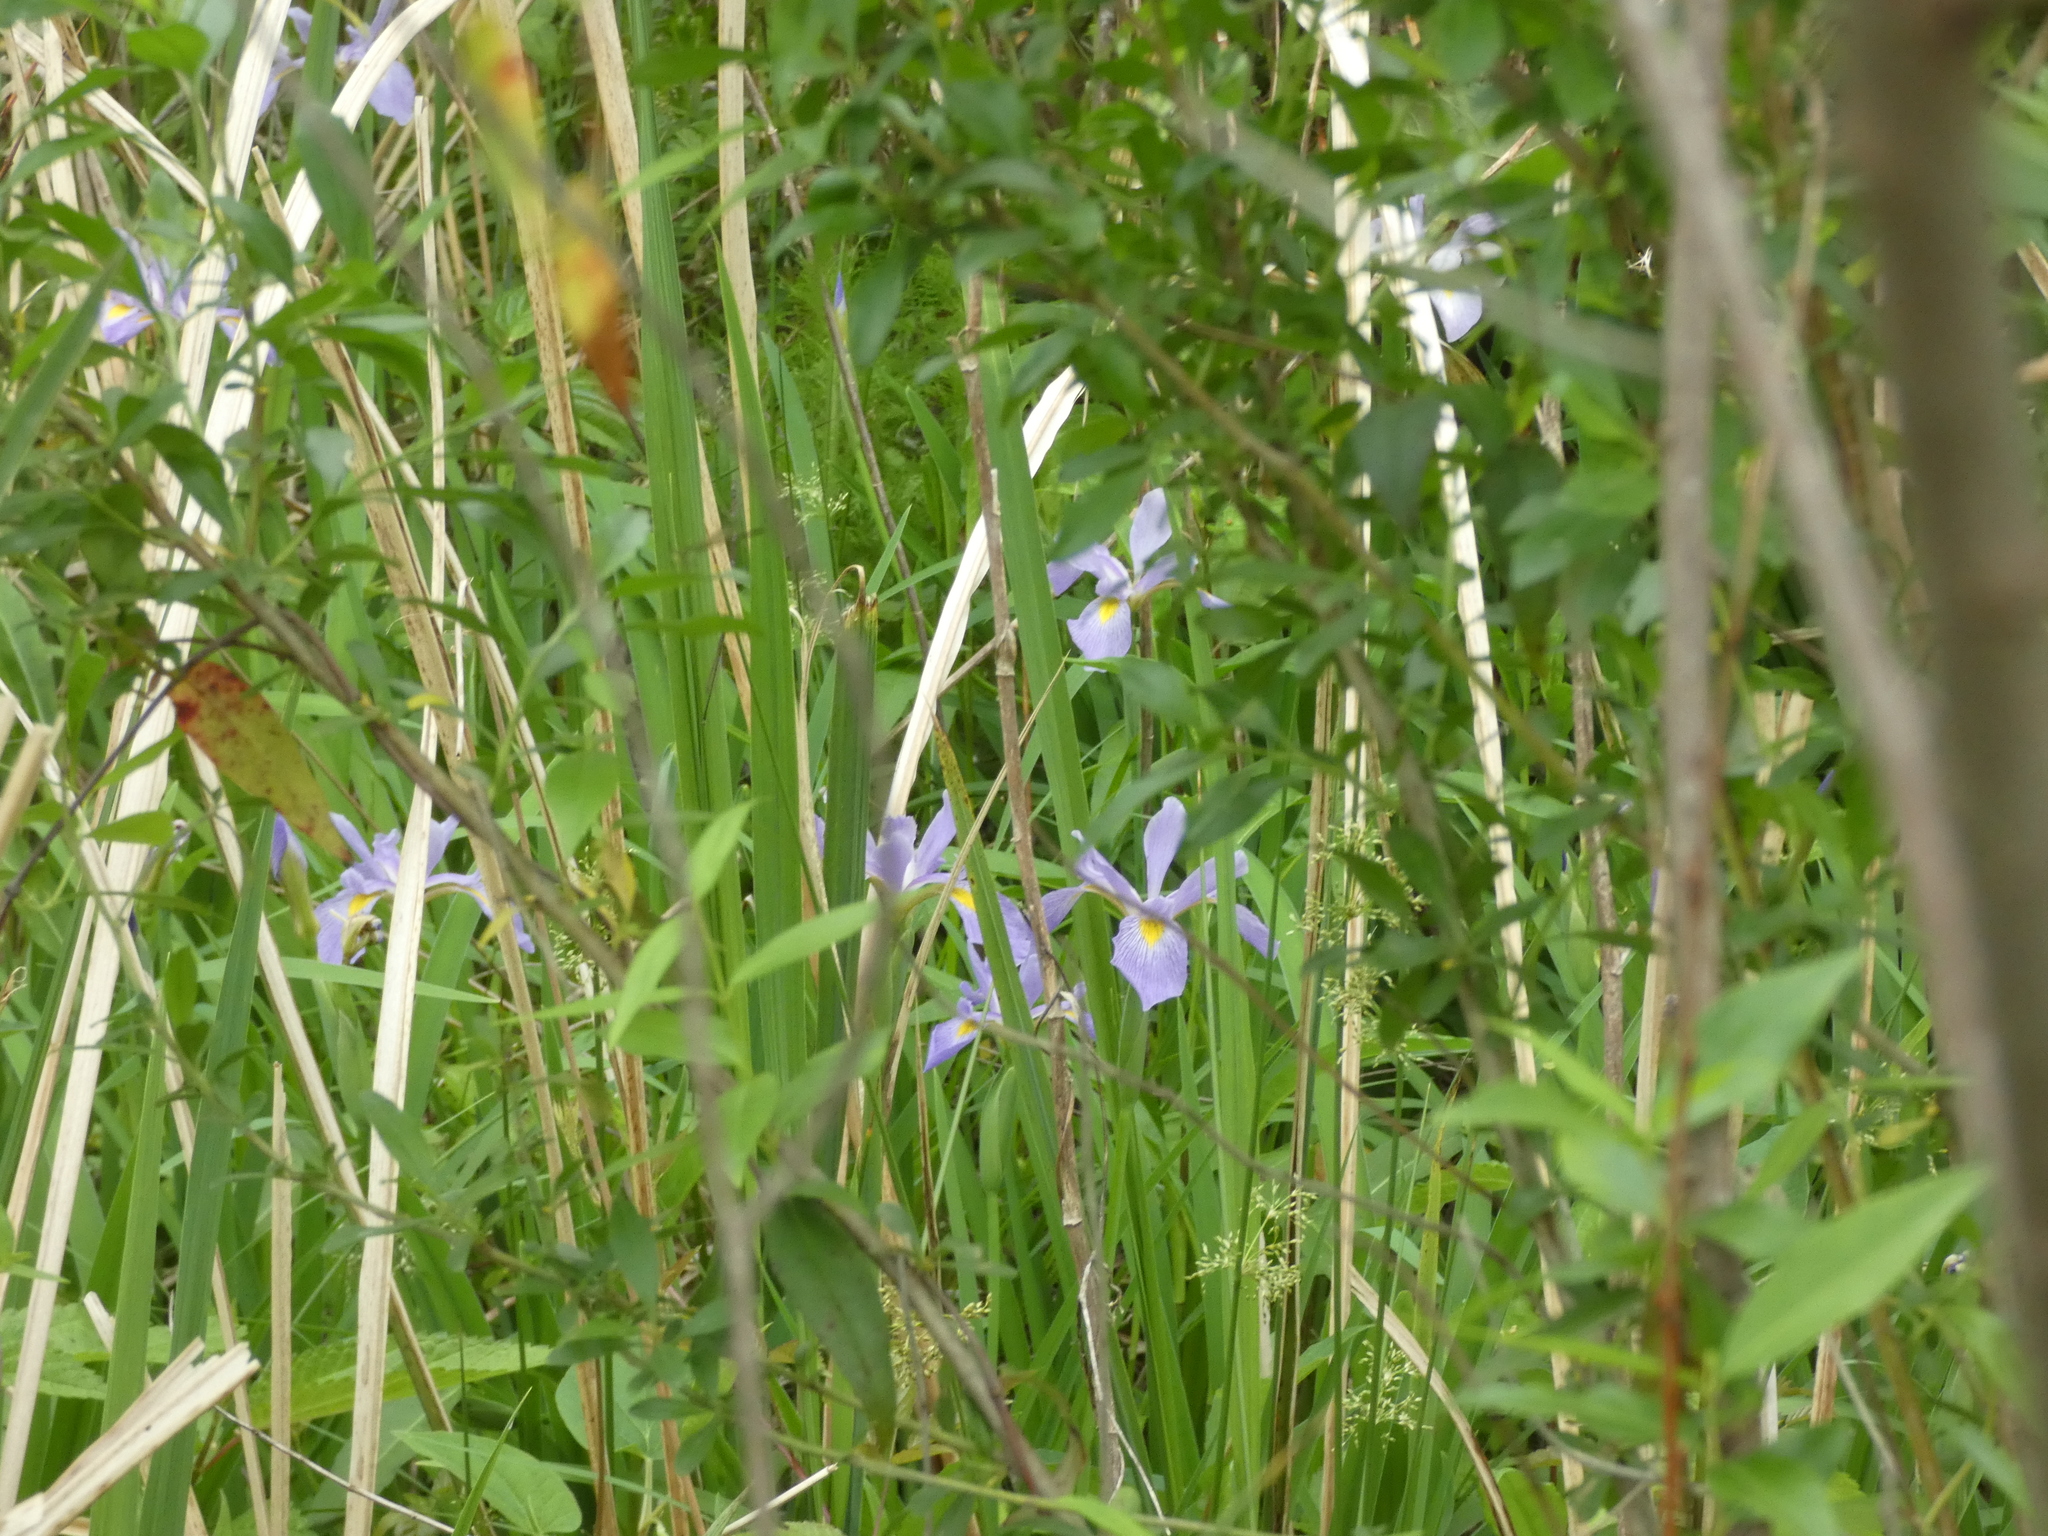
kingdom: Plantae
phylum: Tracheophyta
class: Liliopsida
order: Asparagales
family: Iridaceae
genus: Iris
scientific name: Iris virginica
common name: Southern blue flag
